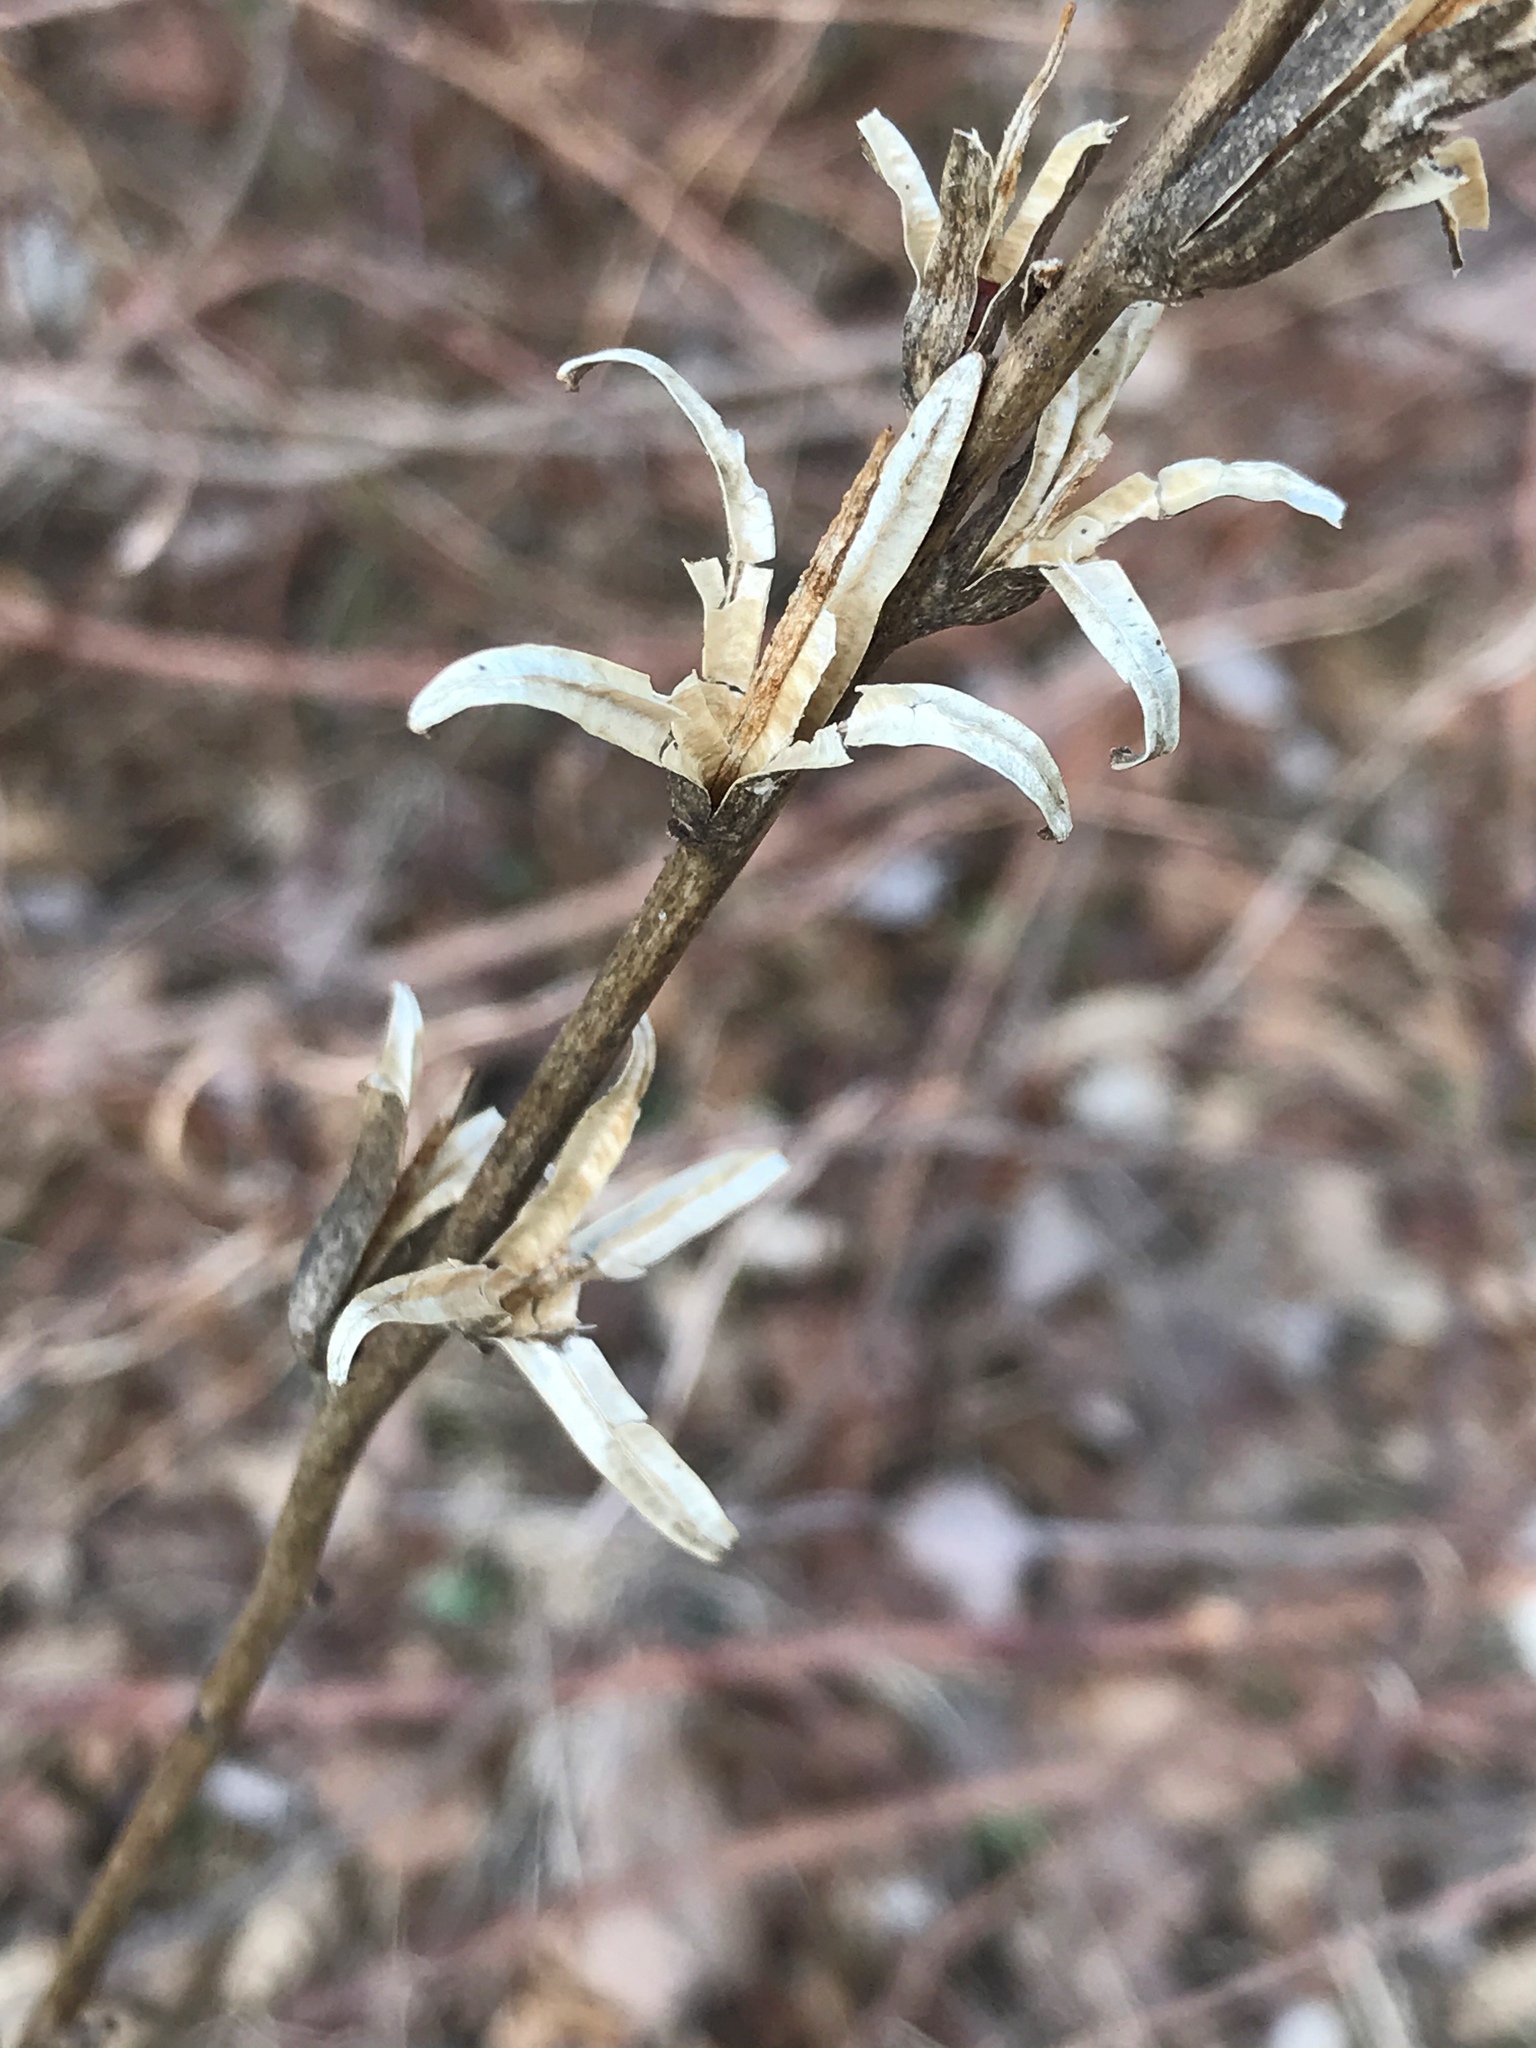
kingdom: Plantae
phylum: Tracheophyta
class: Magnoliopsida
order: Myrtales
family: Onagraceae
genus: Oenothera
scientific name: Oenothera biennis
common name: Common evening-primrose
